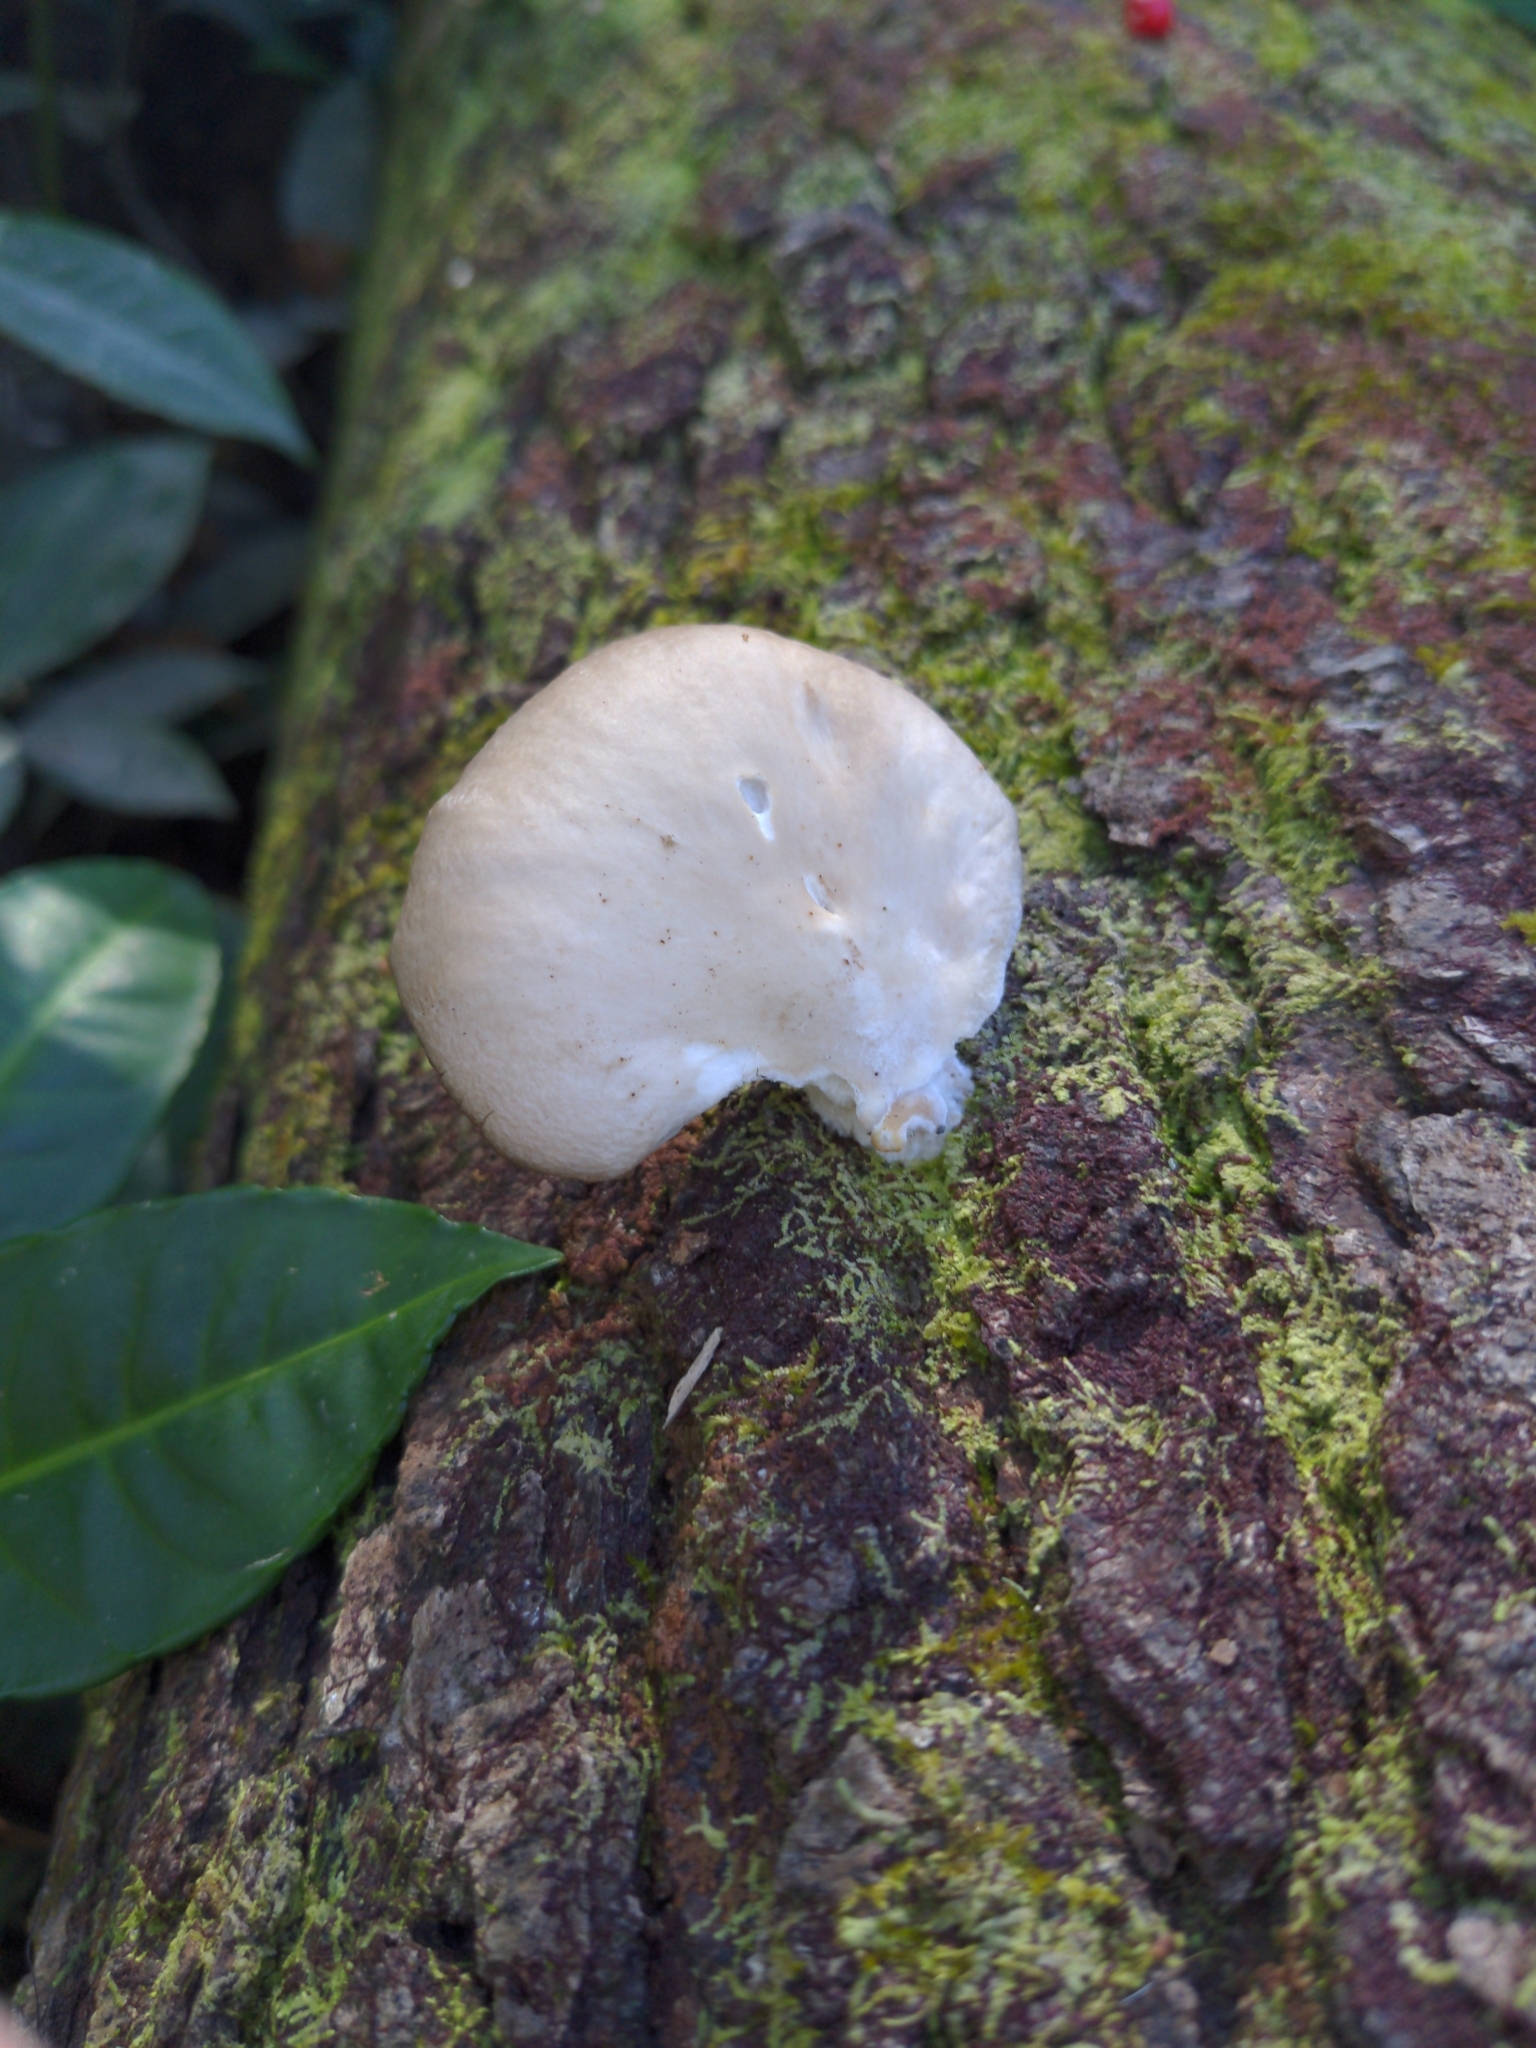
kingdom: Fungi
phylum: Basidiomycota
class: Agaricomycetes
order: Agaricales
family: Pleurotaceae
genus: Pleurotus
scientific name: Pleurotus ostreatus
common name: Oyster mushroom
